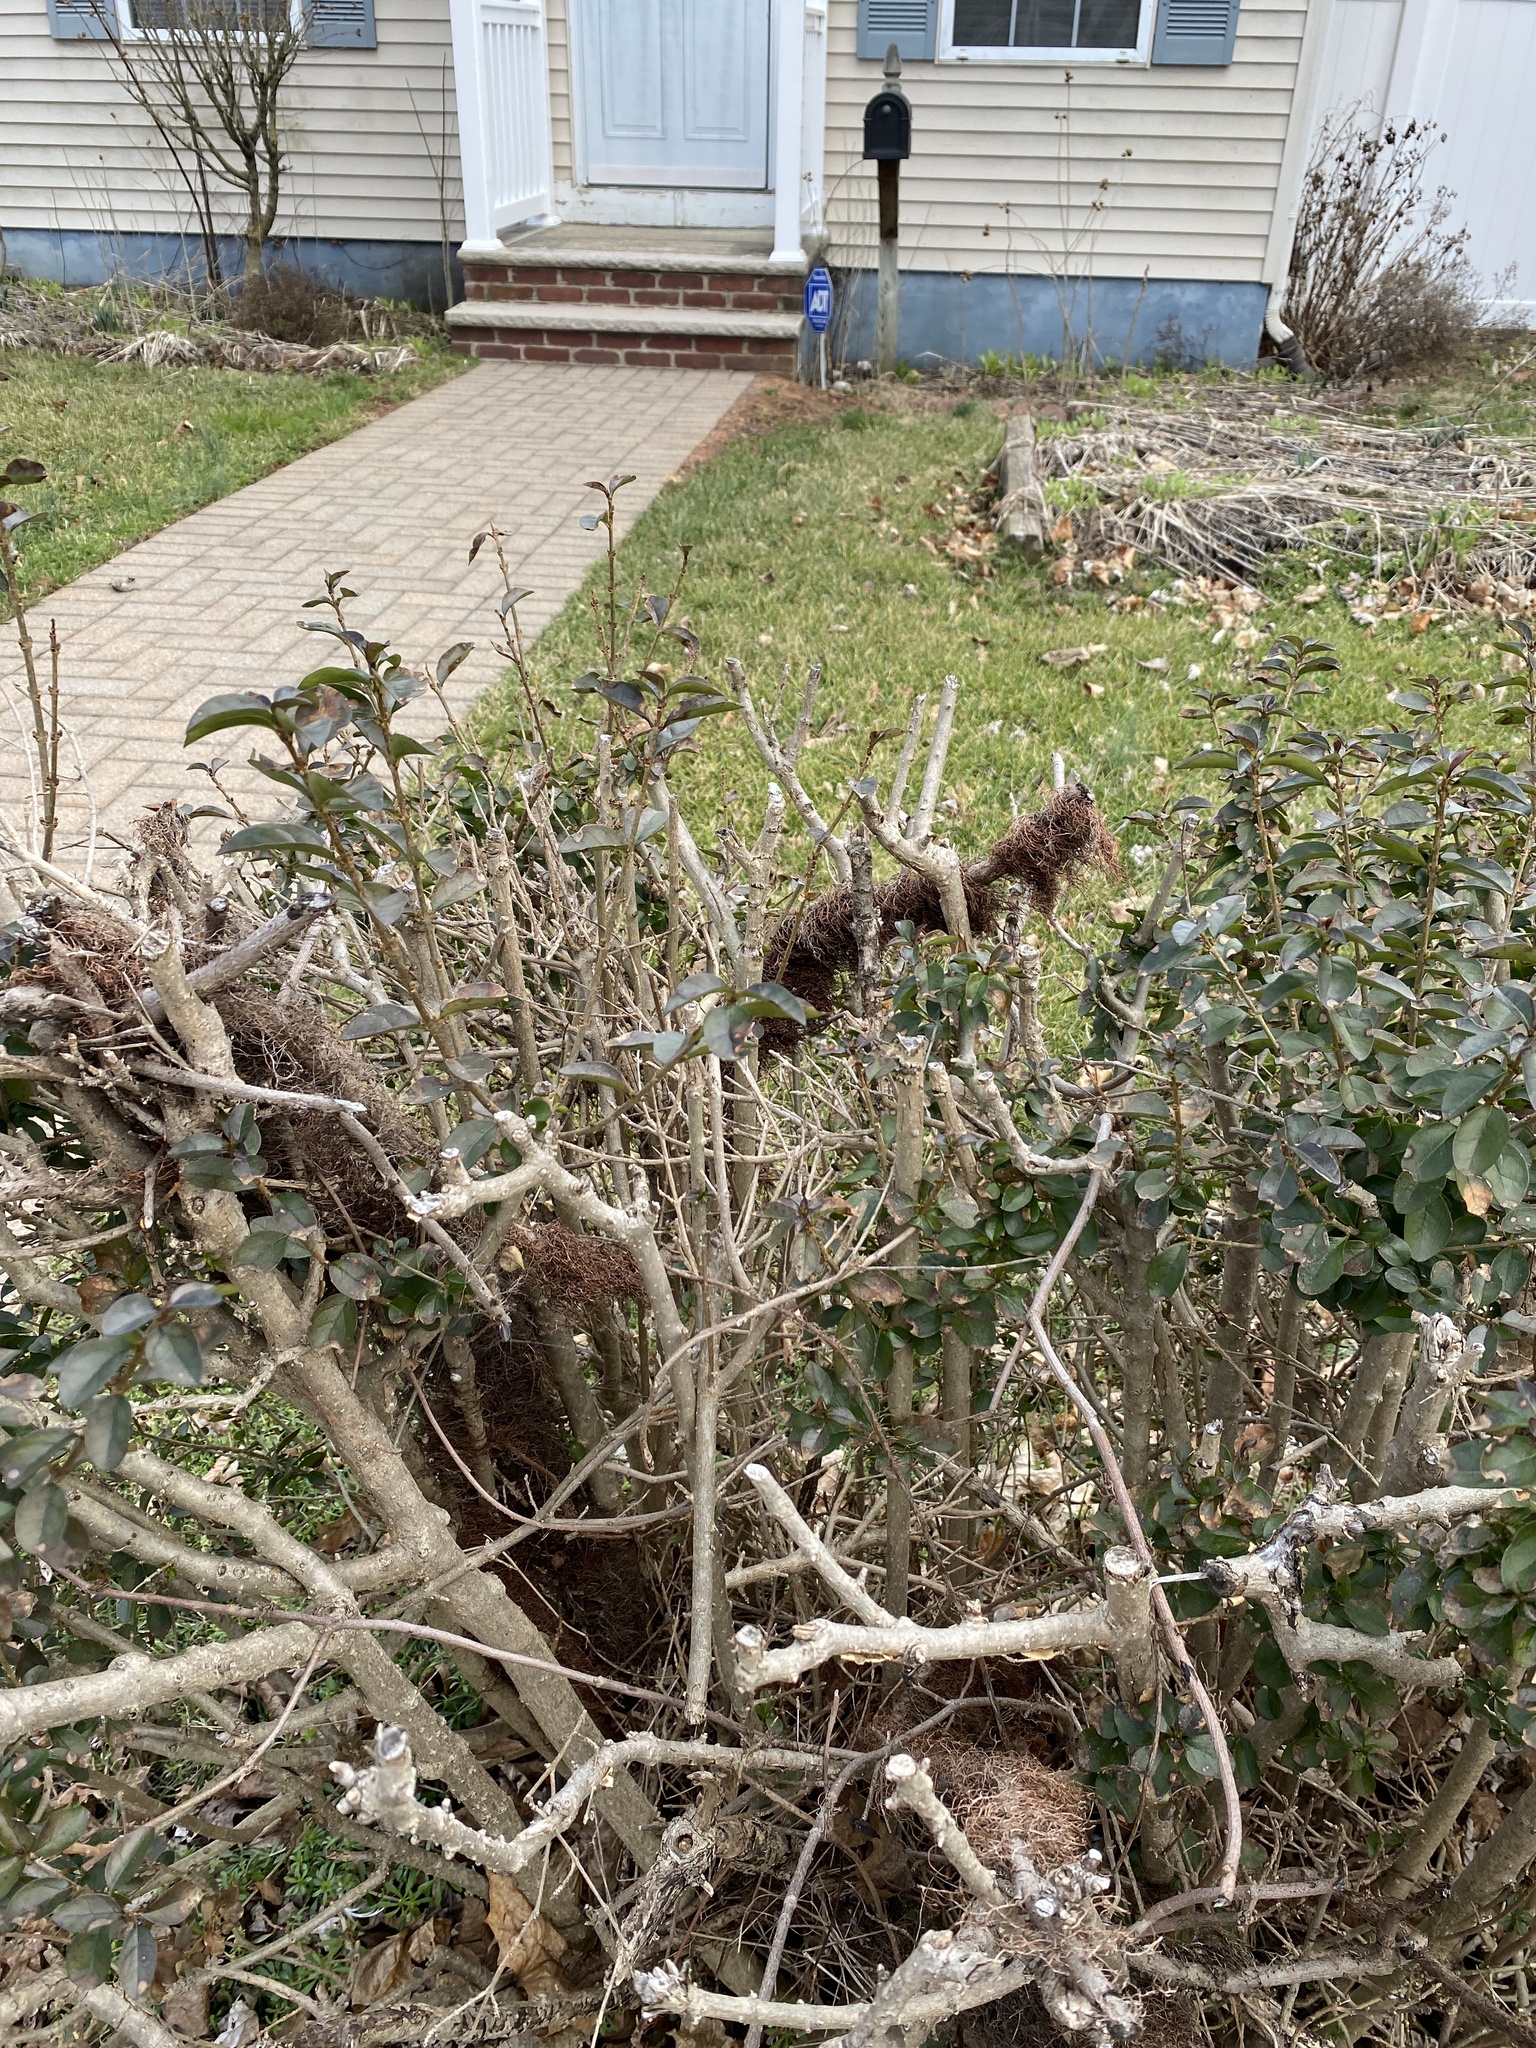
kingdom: Plantae
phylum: Tracheophyta
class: Magnoliopsida
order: Sapindales
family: Anacardiaceae
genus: Toxicodendron
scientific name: Toxicodendron radicans
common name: Poison ivy
